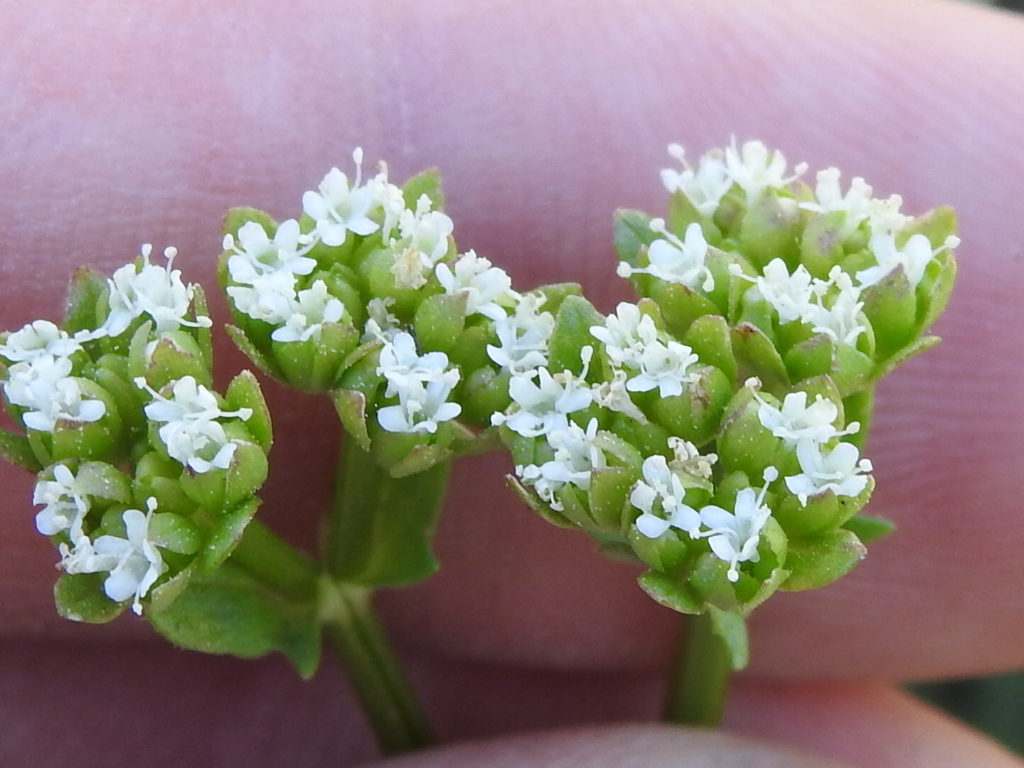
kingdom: Plantae
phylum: Tracheophyta
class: Magnoliopsida
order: Dipsacales
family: Caprifoliaceae
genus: Valerianella
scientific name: Valerianella radiata
